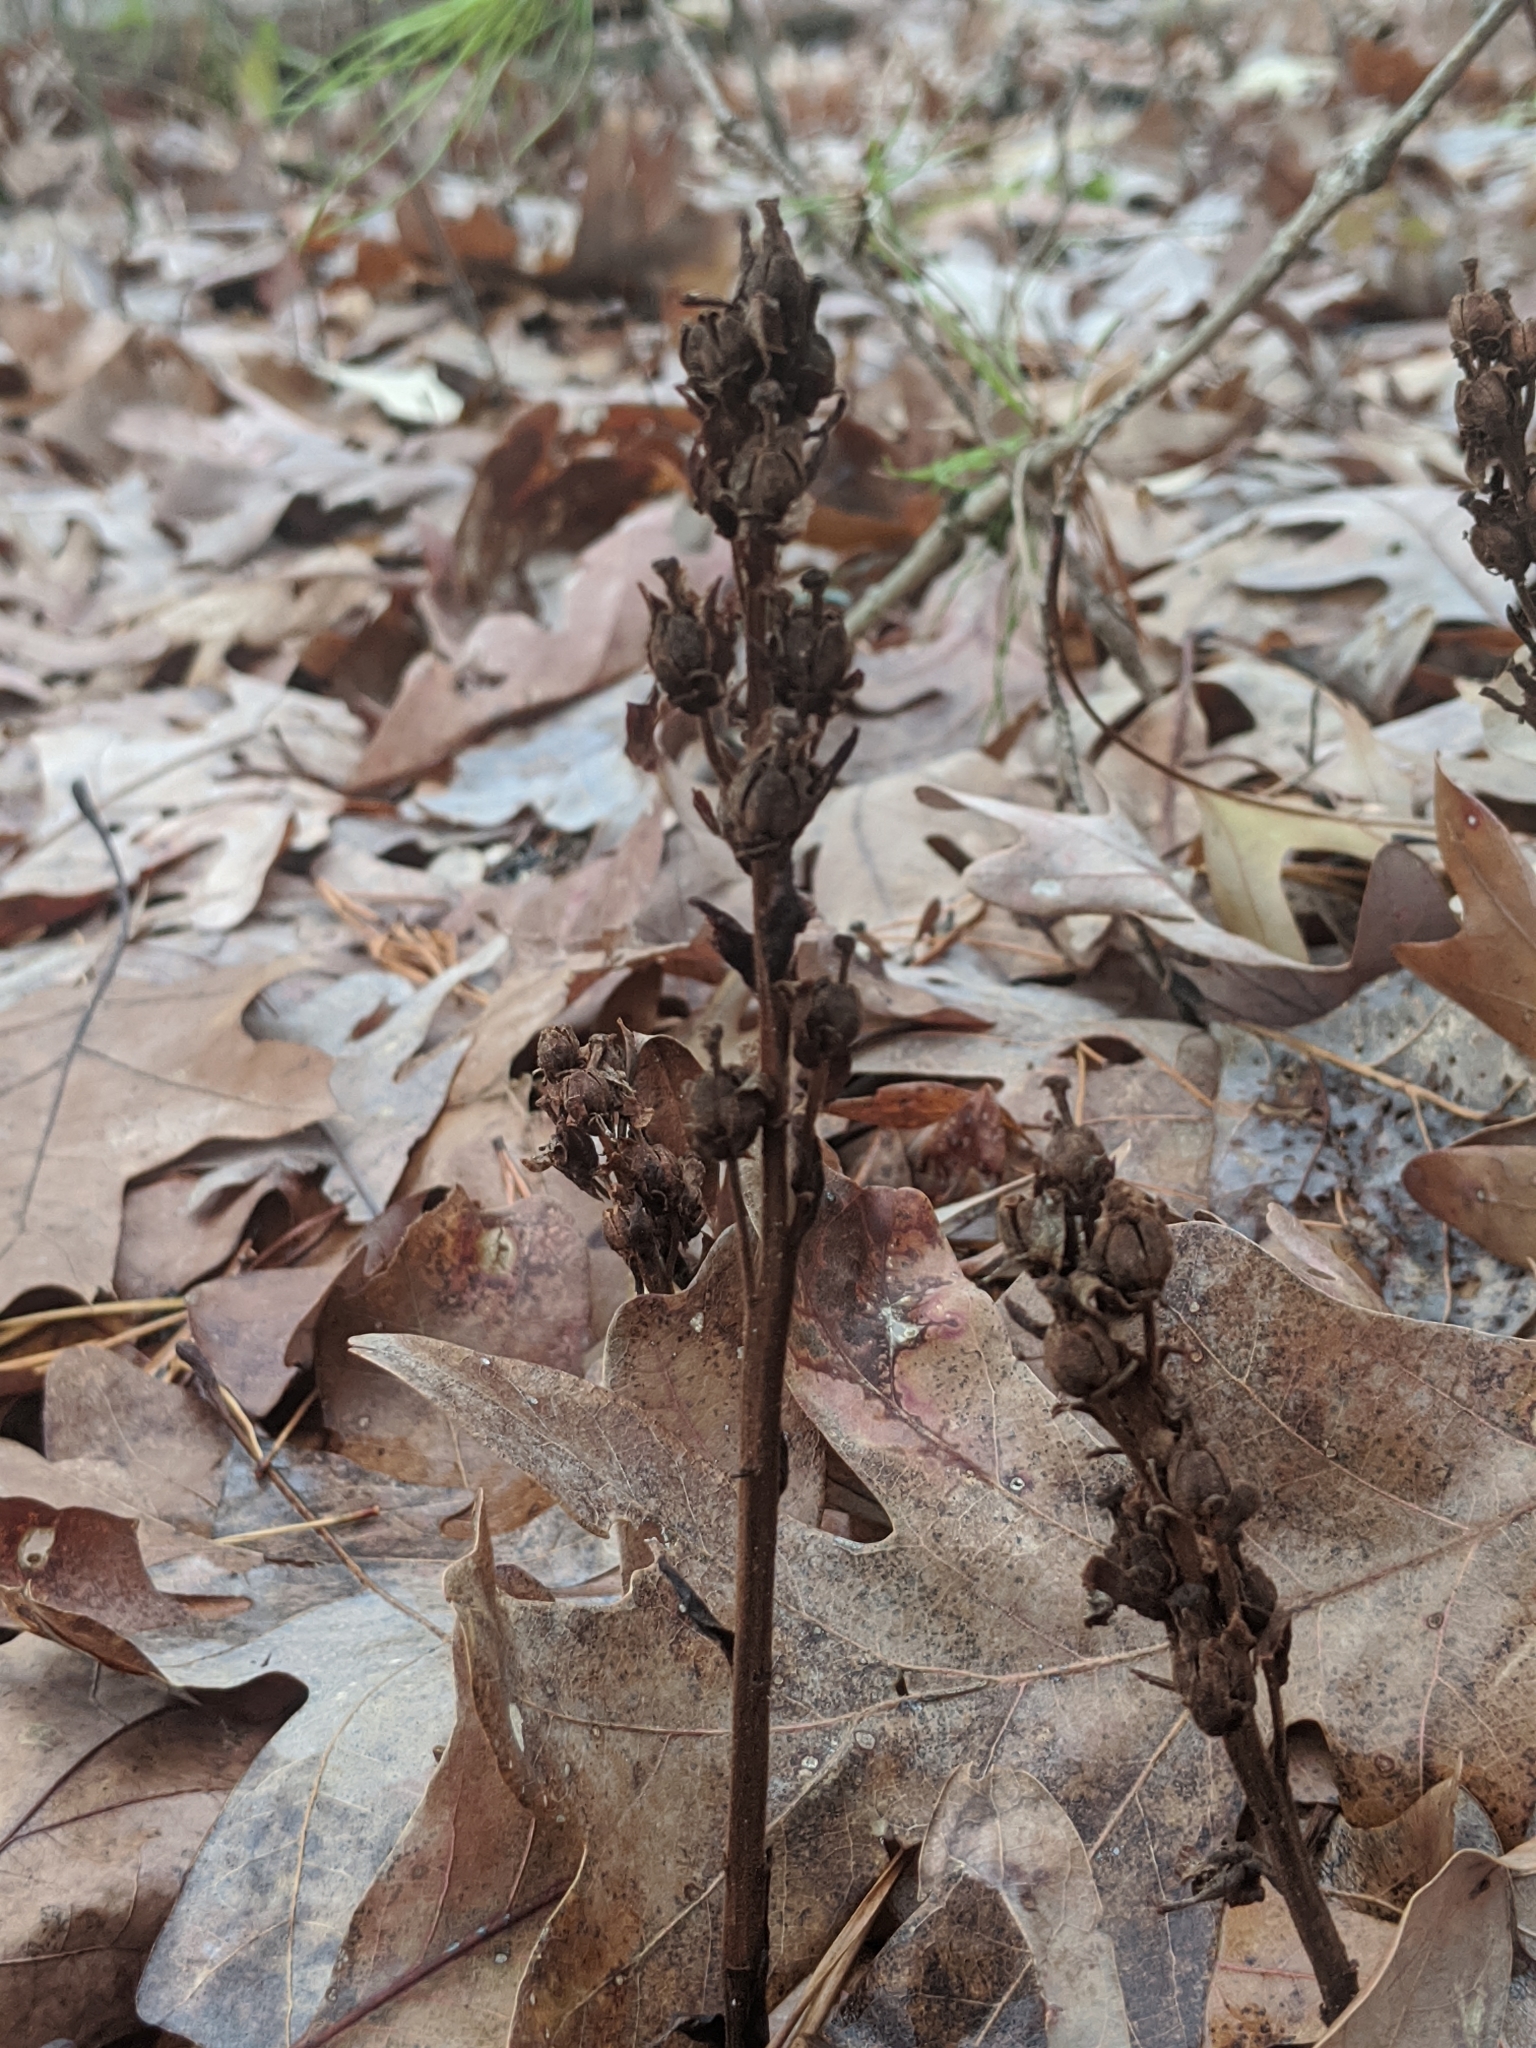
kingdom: Plantae
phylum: Tracheophyta
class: Magnoliopsida
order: Ericales
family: Ericaceae
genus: Hypopitys
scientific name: Hypopitys monotropa
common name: Yellow bird's-nest
